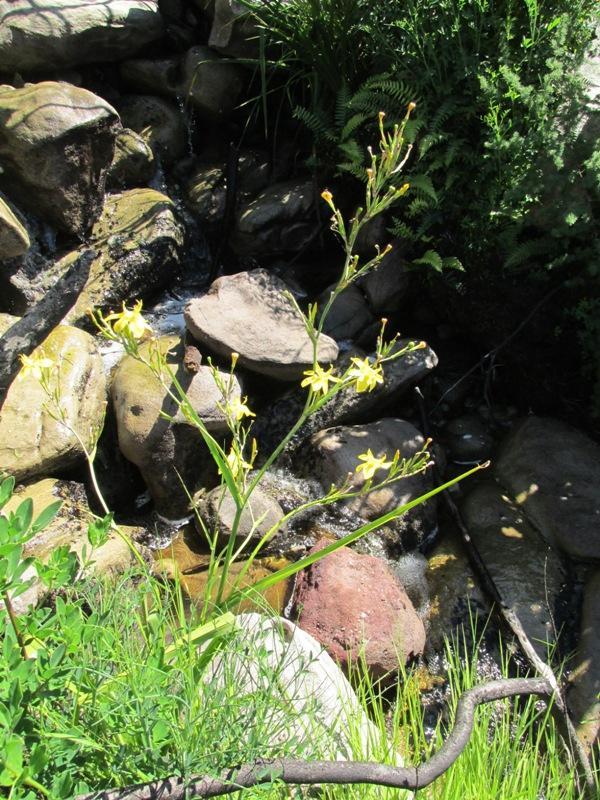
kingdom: Plantae
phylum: Tracheophyta
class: Liliopsida
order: Asparagales
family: Iridaceae
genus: Moraea
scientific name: Moraea ramosissima
